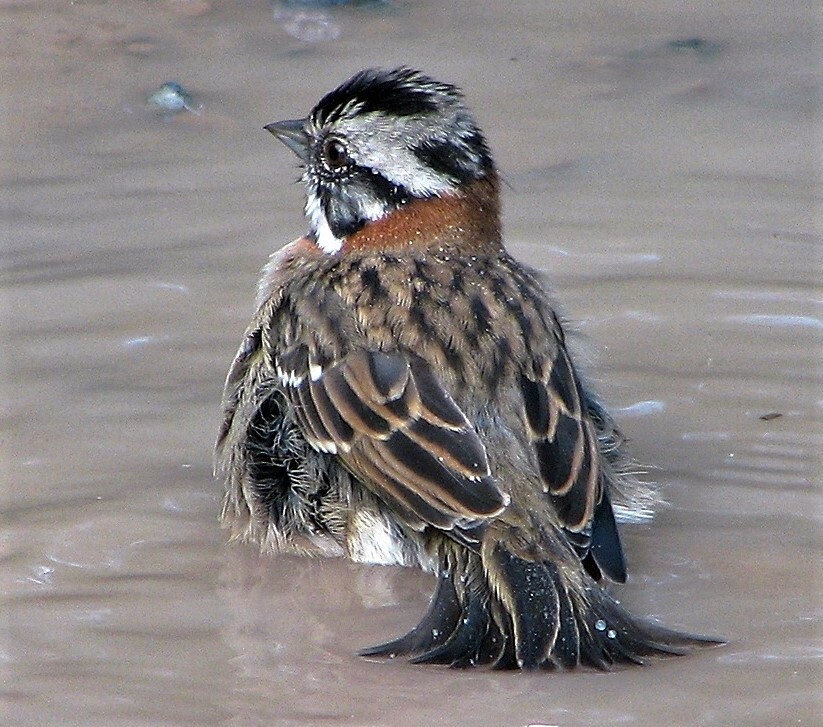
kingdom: Animalia
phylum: Chordata
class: Aves
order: Passeriformes
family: Passerellidae
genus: Zonotrichia
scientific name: Zonotrichia capensis
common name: Rufous-collared sparrow
